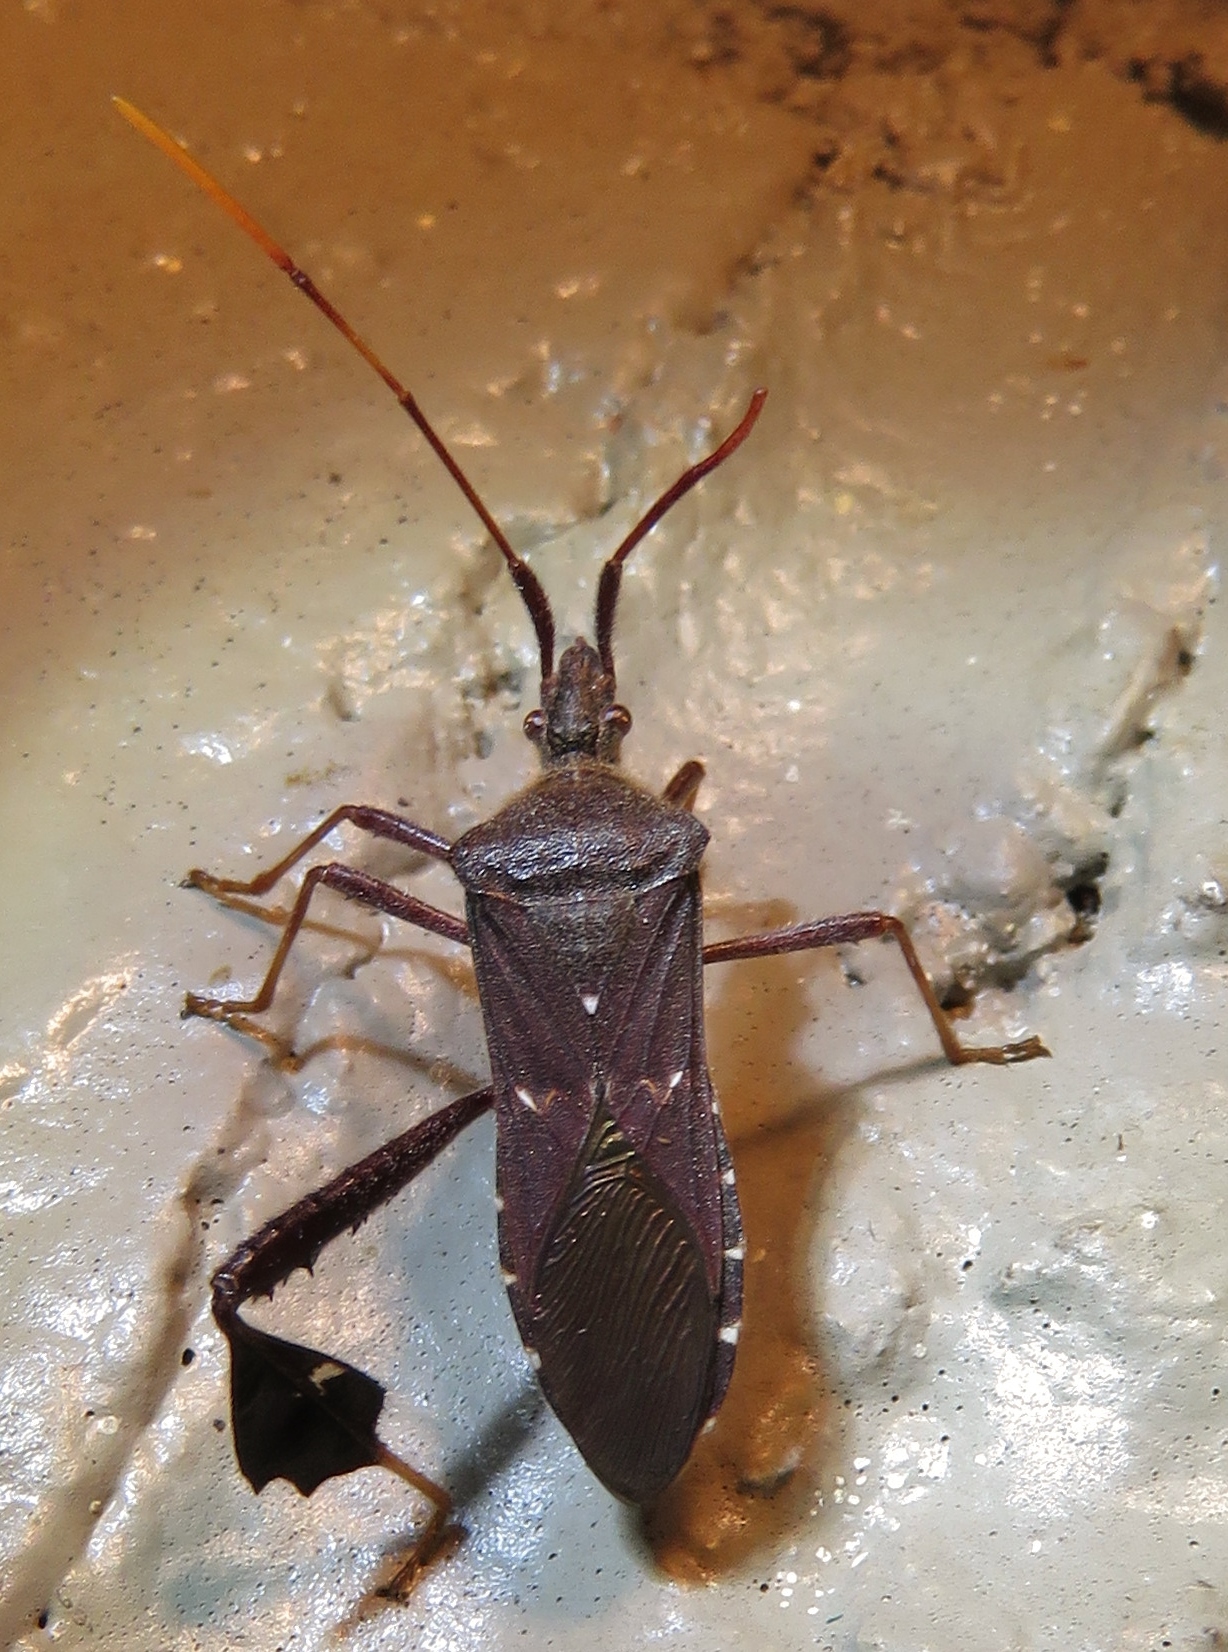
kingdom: Animalia
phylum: Arthropoda
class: Insecta
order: Hemiptera
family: Coreidae
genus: Leptoglossus
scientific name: Leptoglossus oppositus
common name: Northern leaf-footed bug
